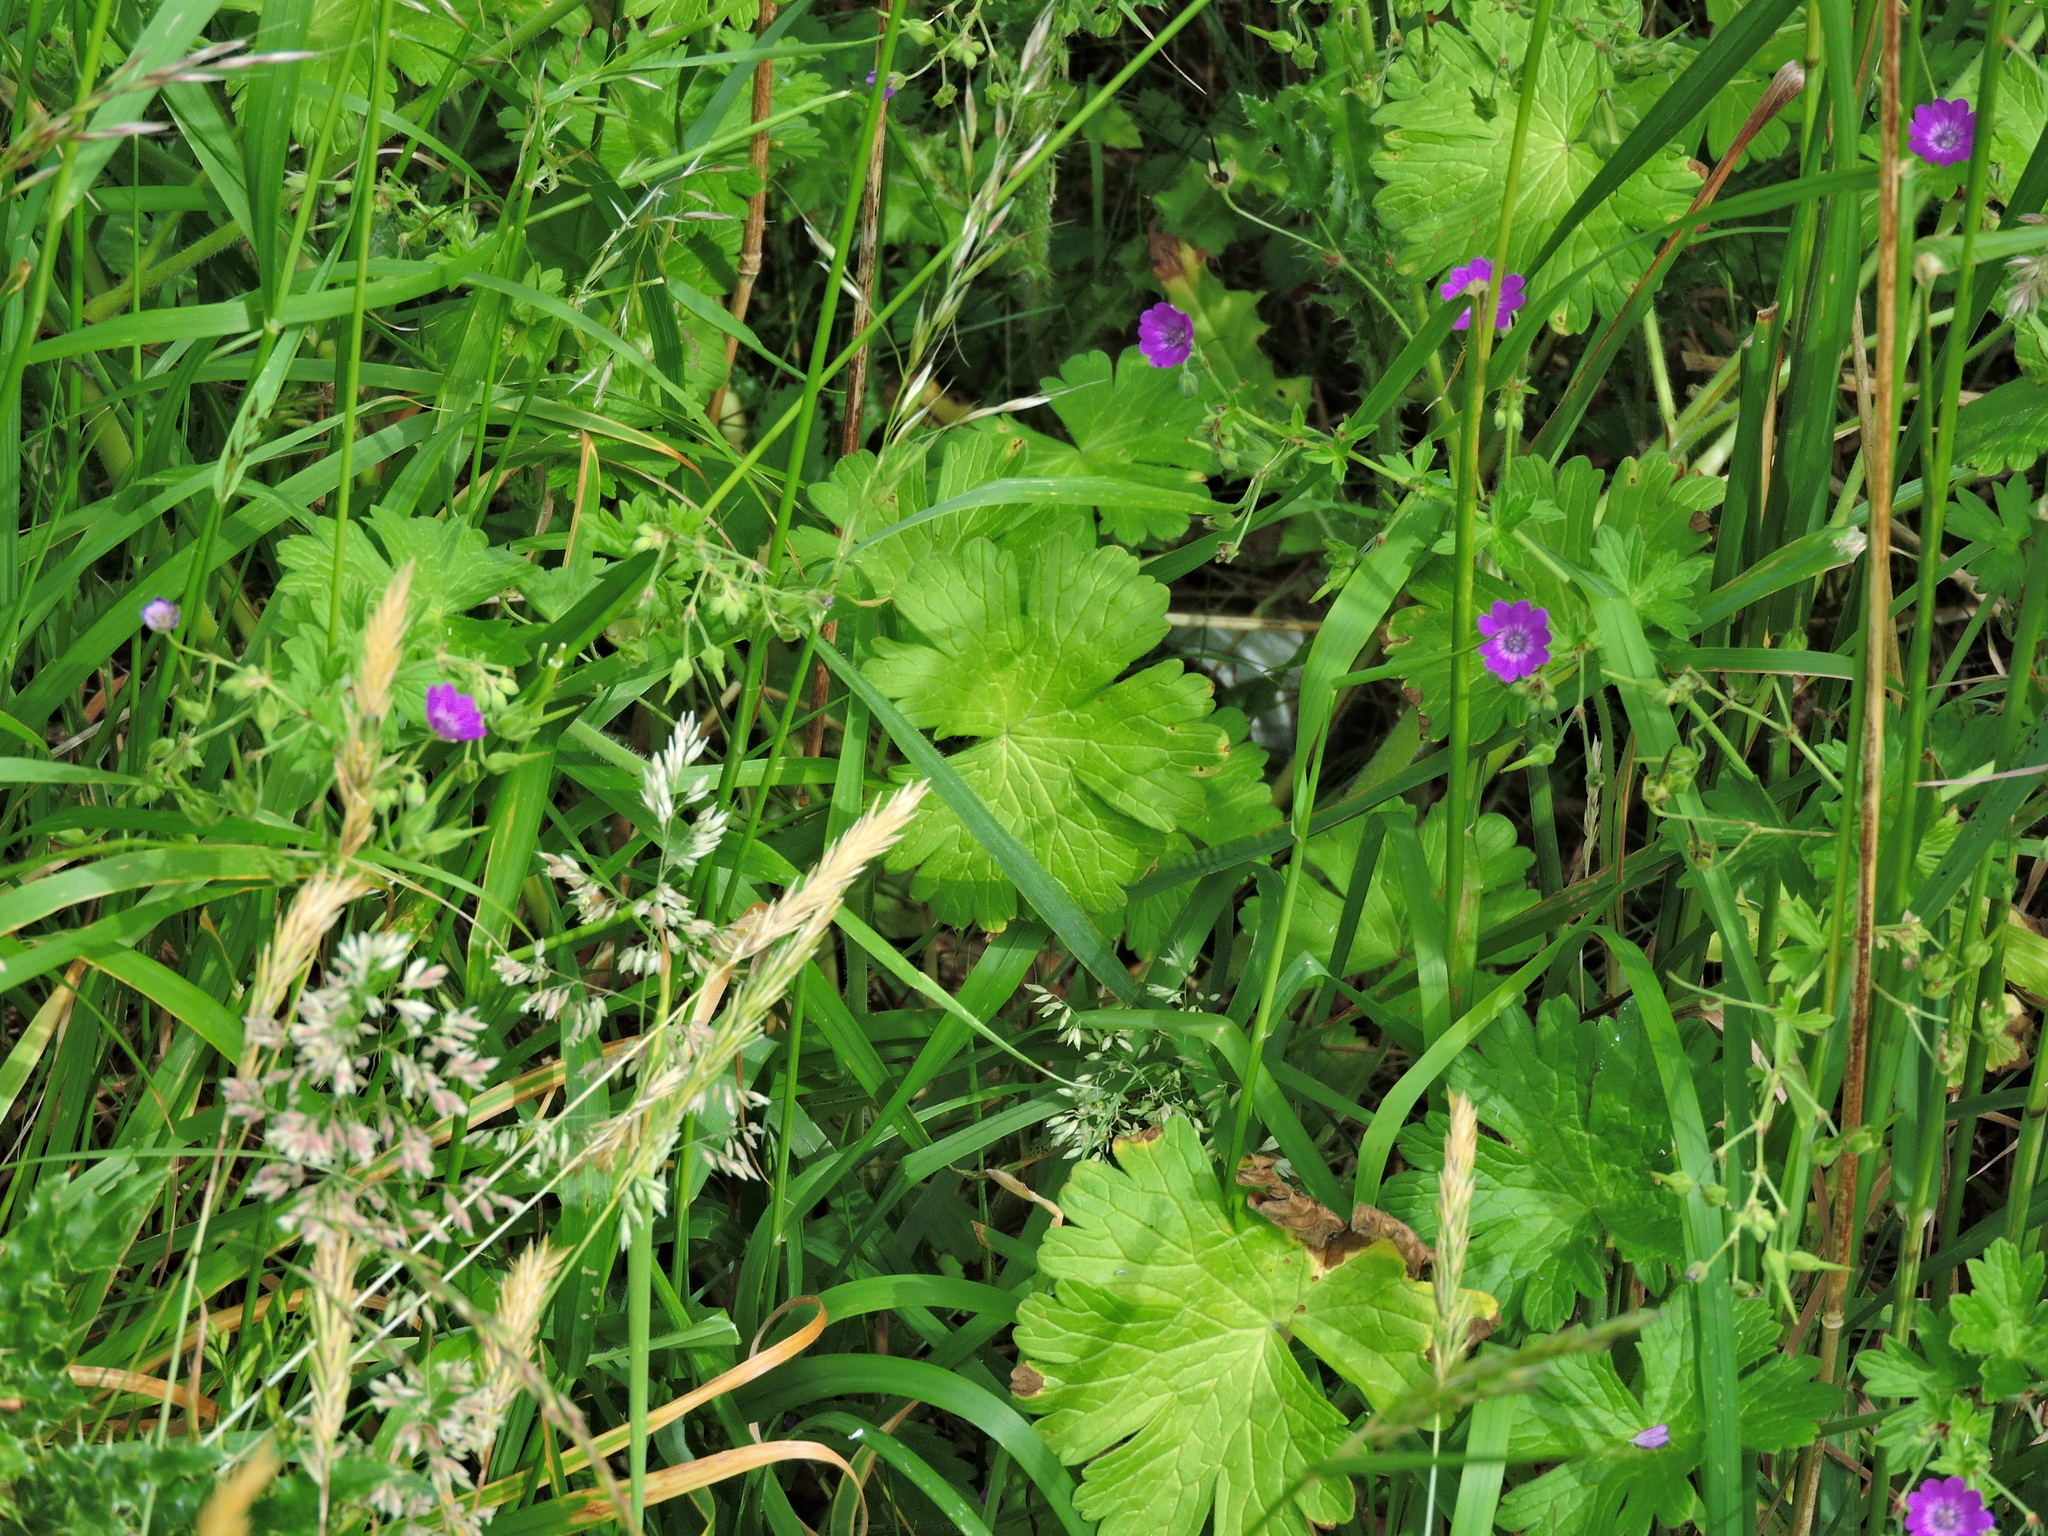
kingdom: Plantae
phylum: Tracheophyta
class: Magnoliopsida
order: Geraniales
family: Geraniaceae
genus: Geranium
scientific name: Geranium pyrenaicum
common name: Hedgerow crane's-bill
